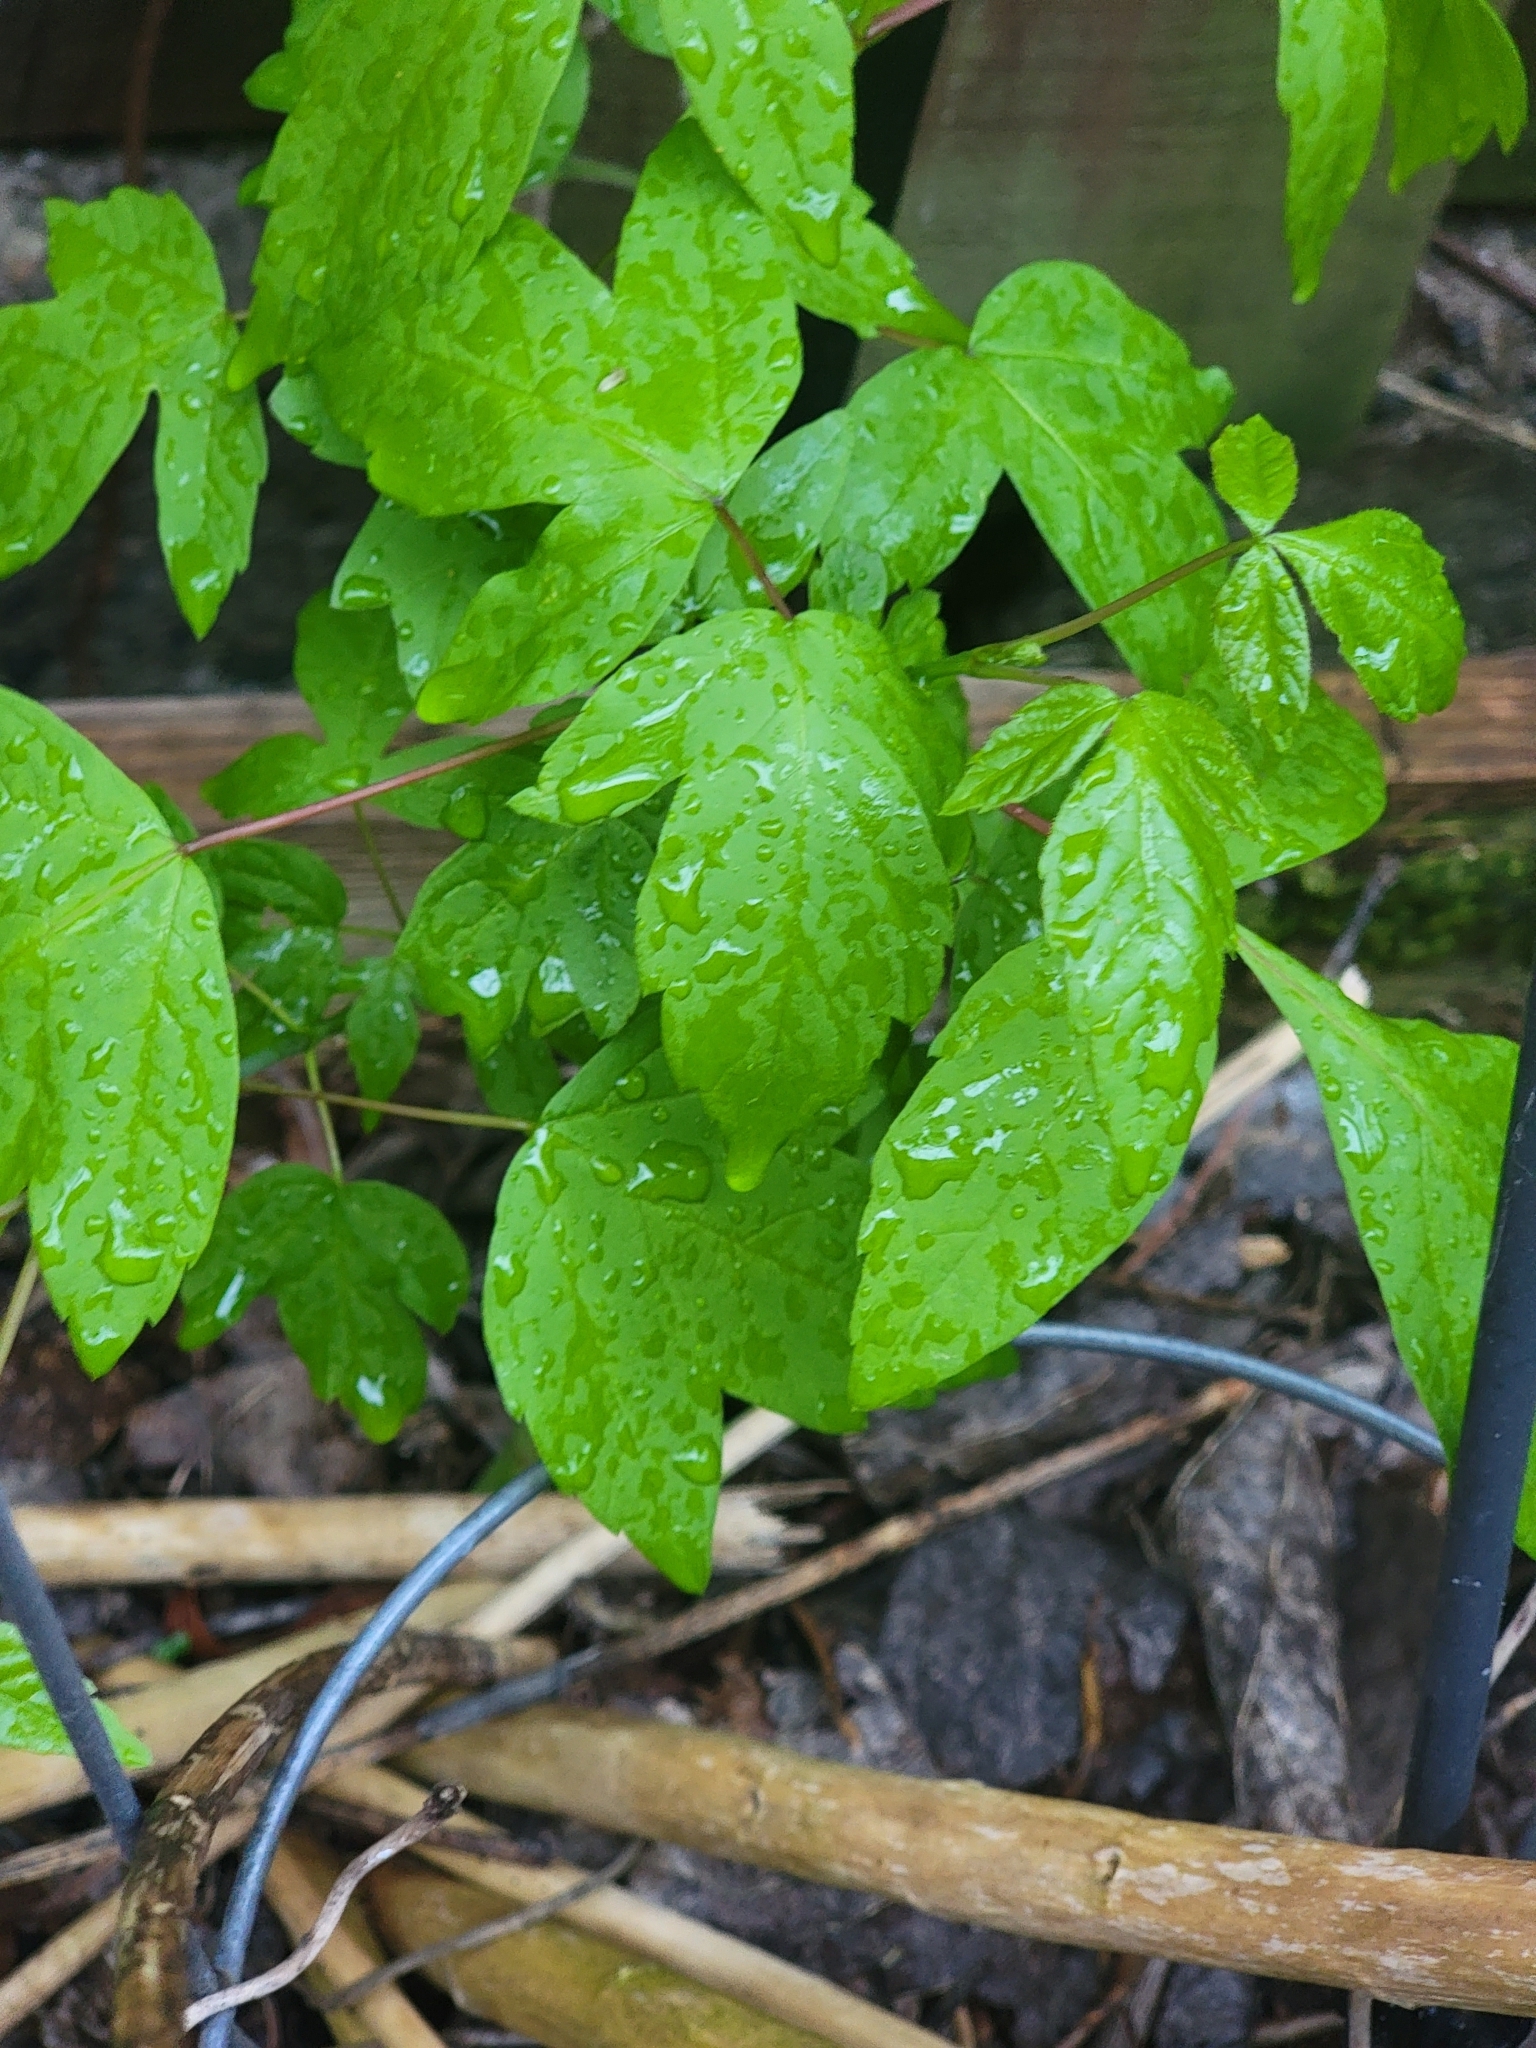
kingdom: Plantae
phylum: Tracheophyta
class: Magnoliopsida
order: Sapindales
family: Sapindaceae
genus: Acer
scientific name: Acer negundo
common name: Ashleaf maple
